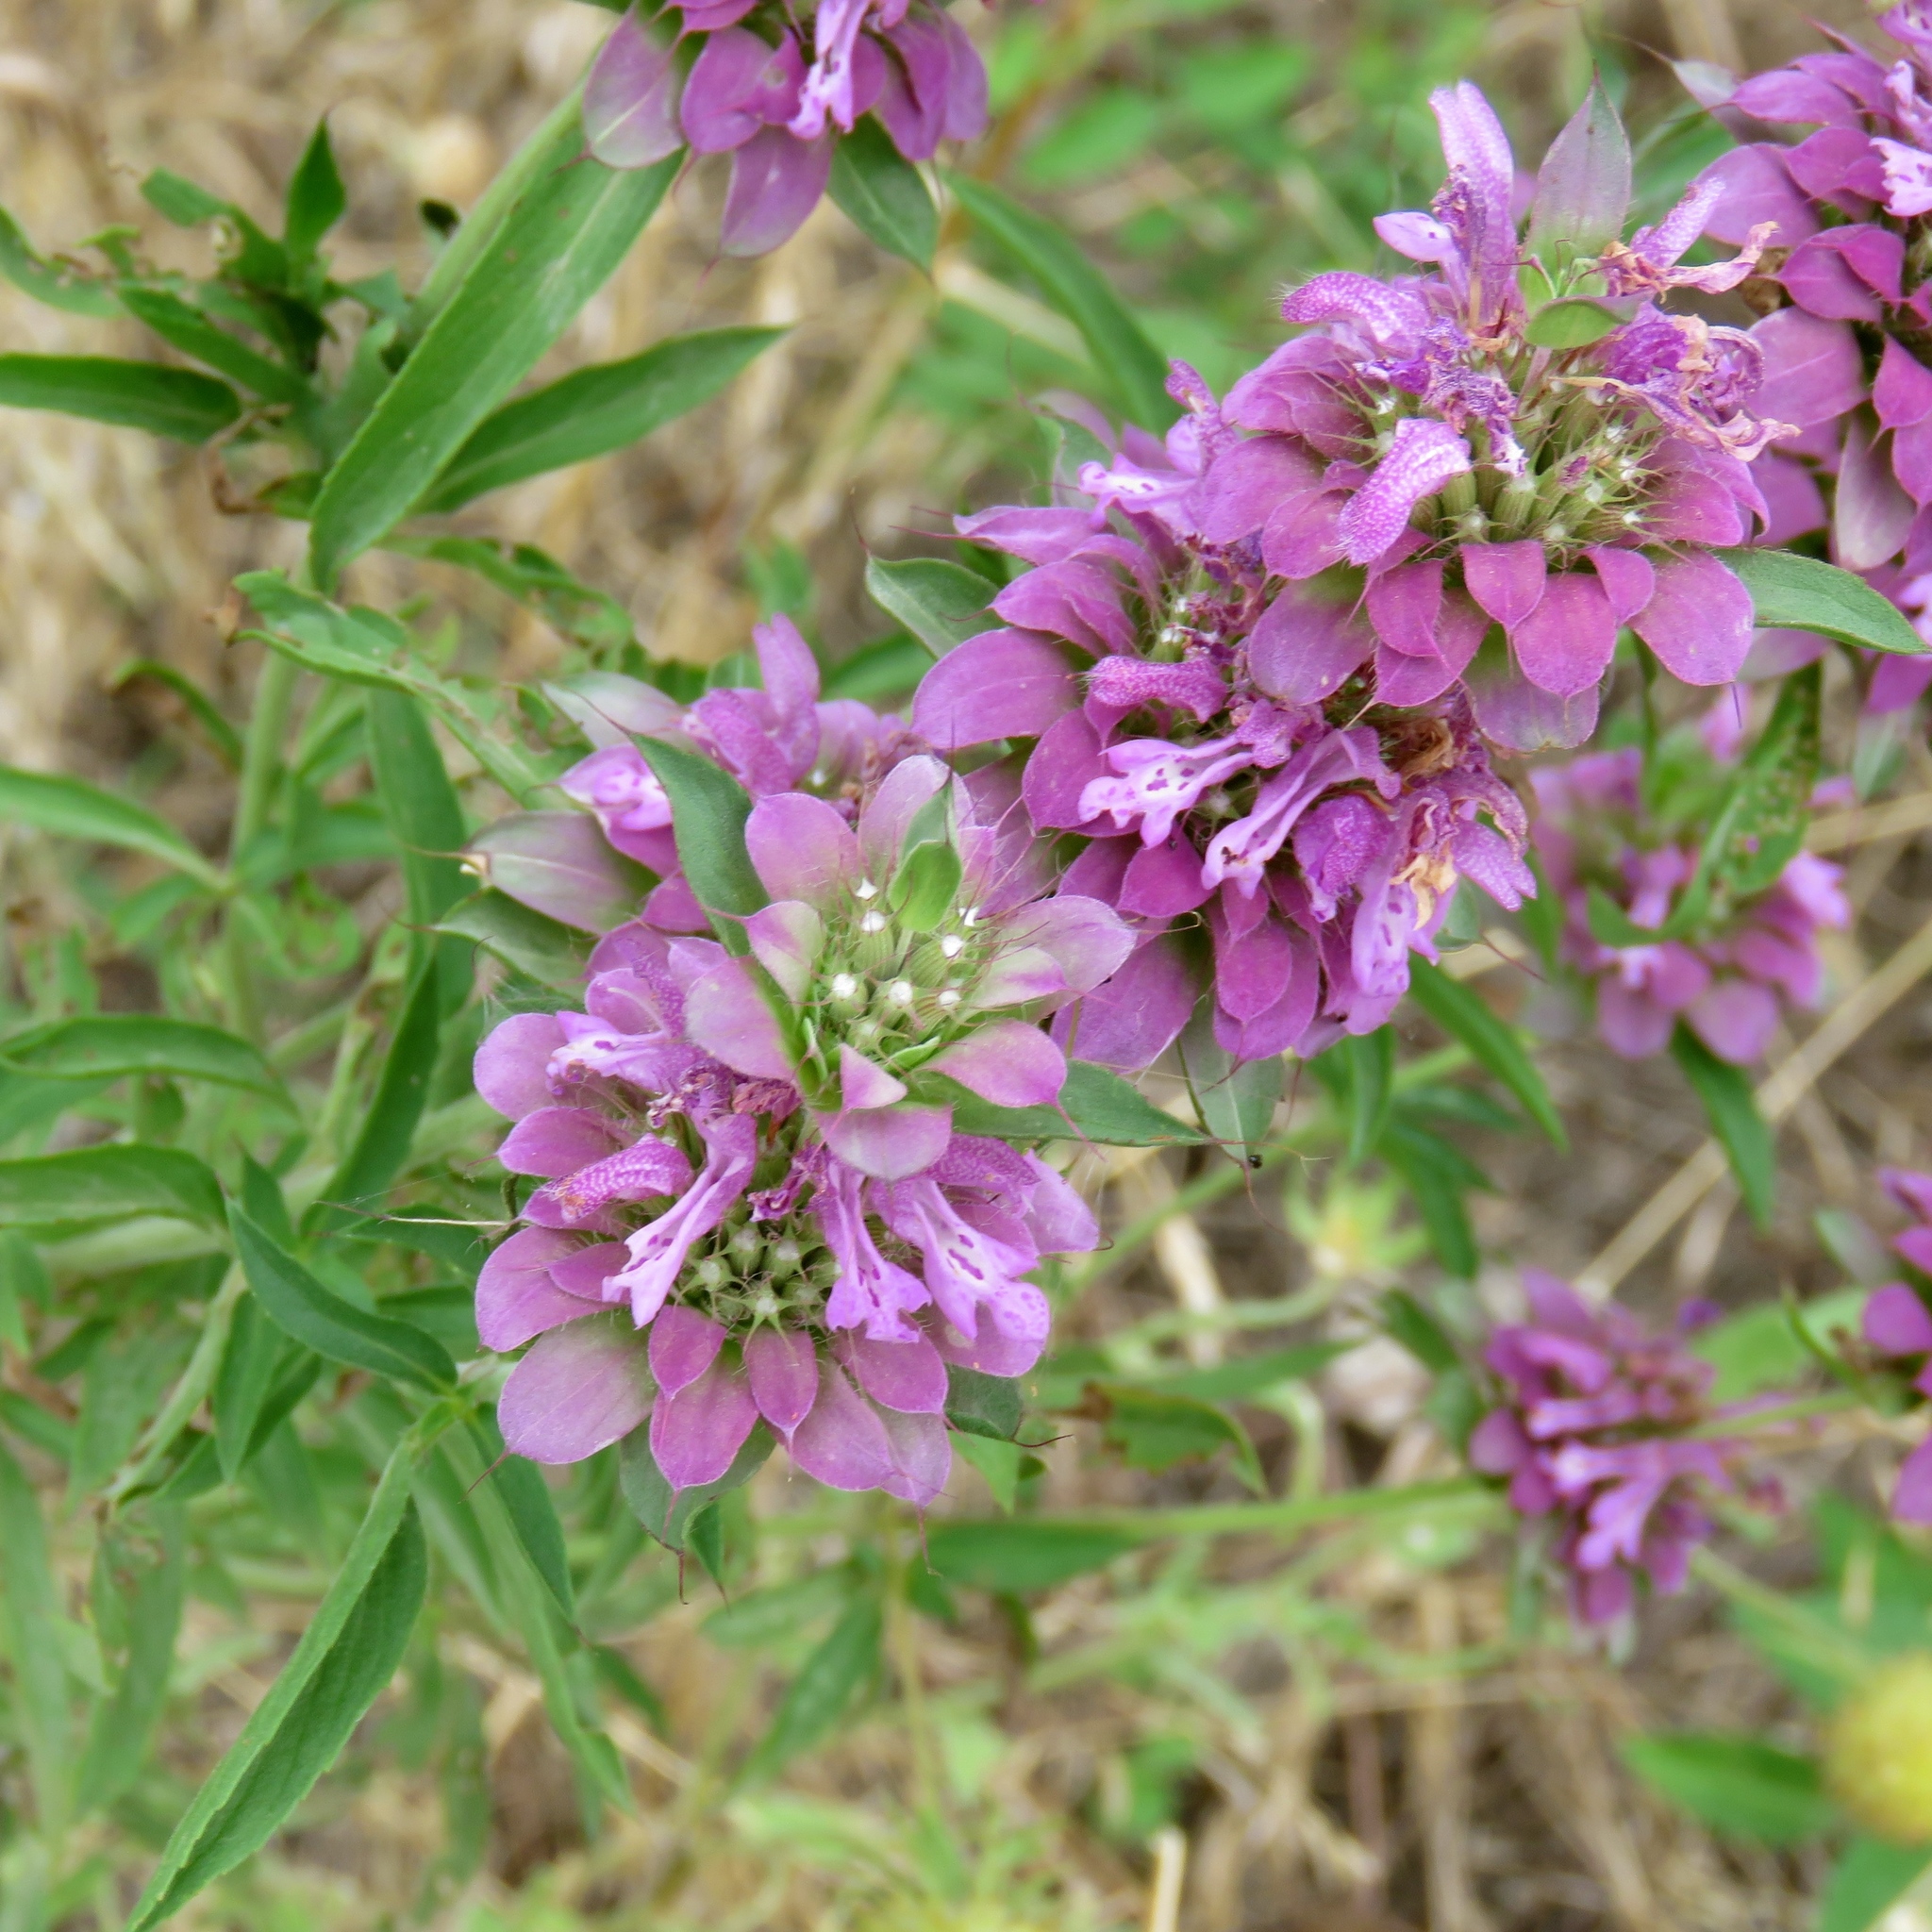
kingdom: Plantae
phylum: Tracheophyta
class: Magnoliopsida
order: Lamiales
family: Lamiaceae
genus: Monarda
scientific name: Monarda citriodora
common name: Lemon beebalm
